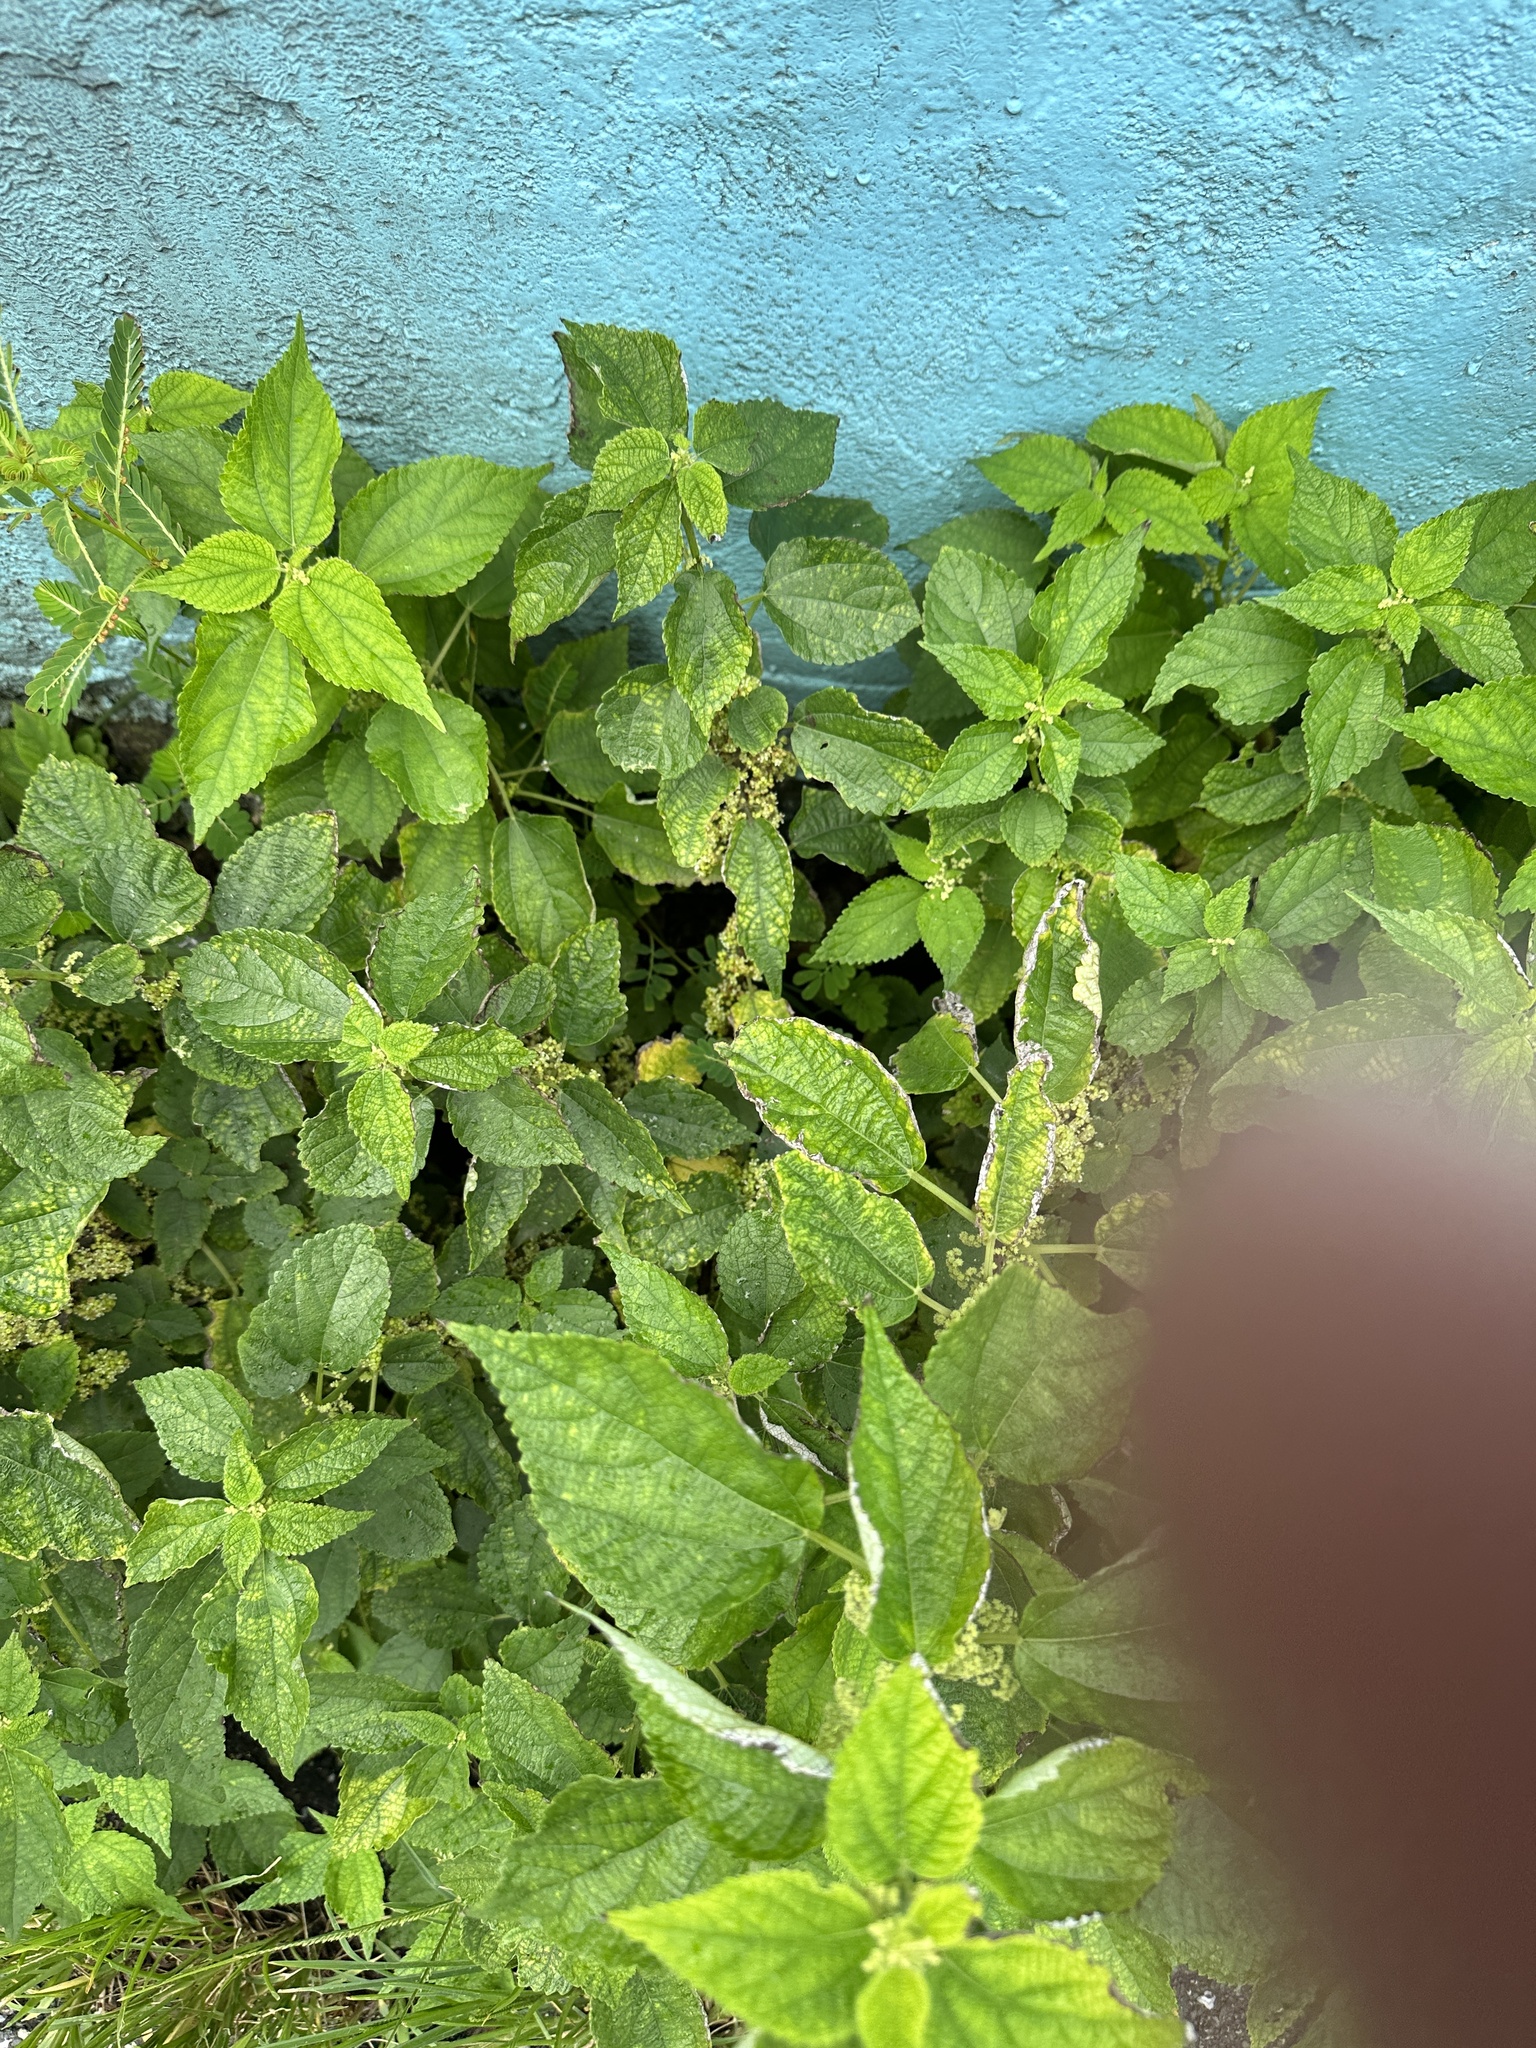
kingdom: Plantae
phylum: Tracheophyta
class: Magnoliopsida
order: Rosales
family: Urticaceae
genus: Boehmeria
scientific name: Boehmeria nivea
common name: Ramie chinese grass
